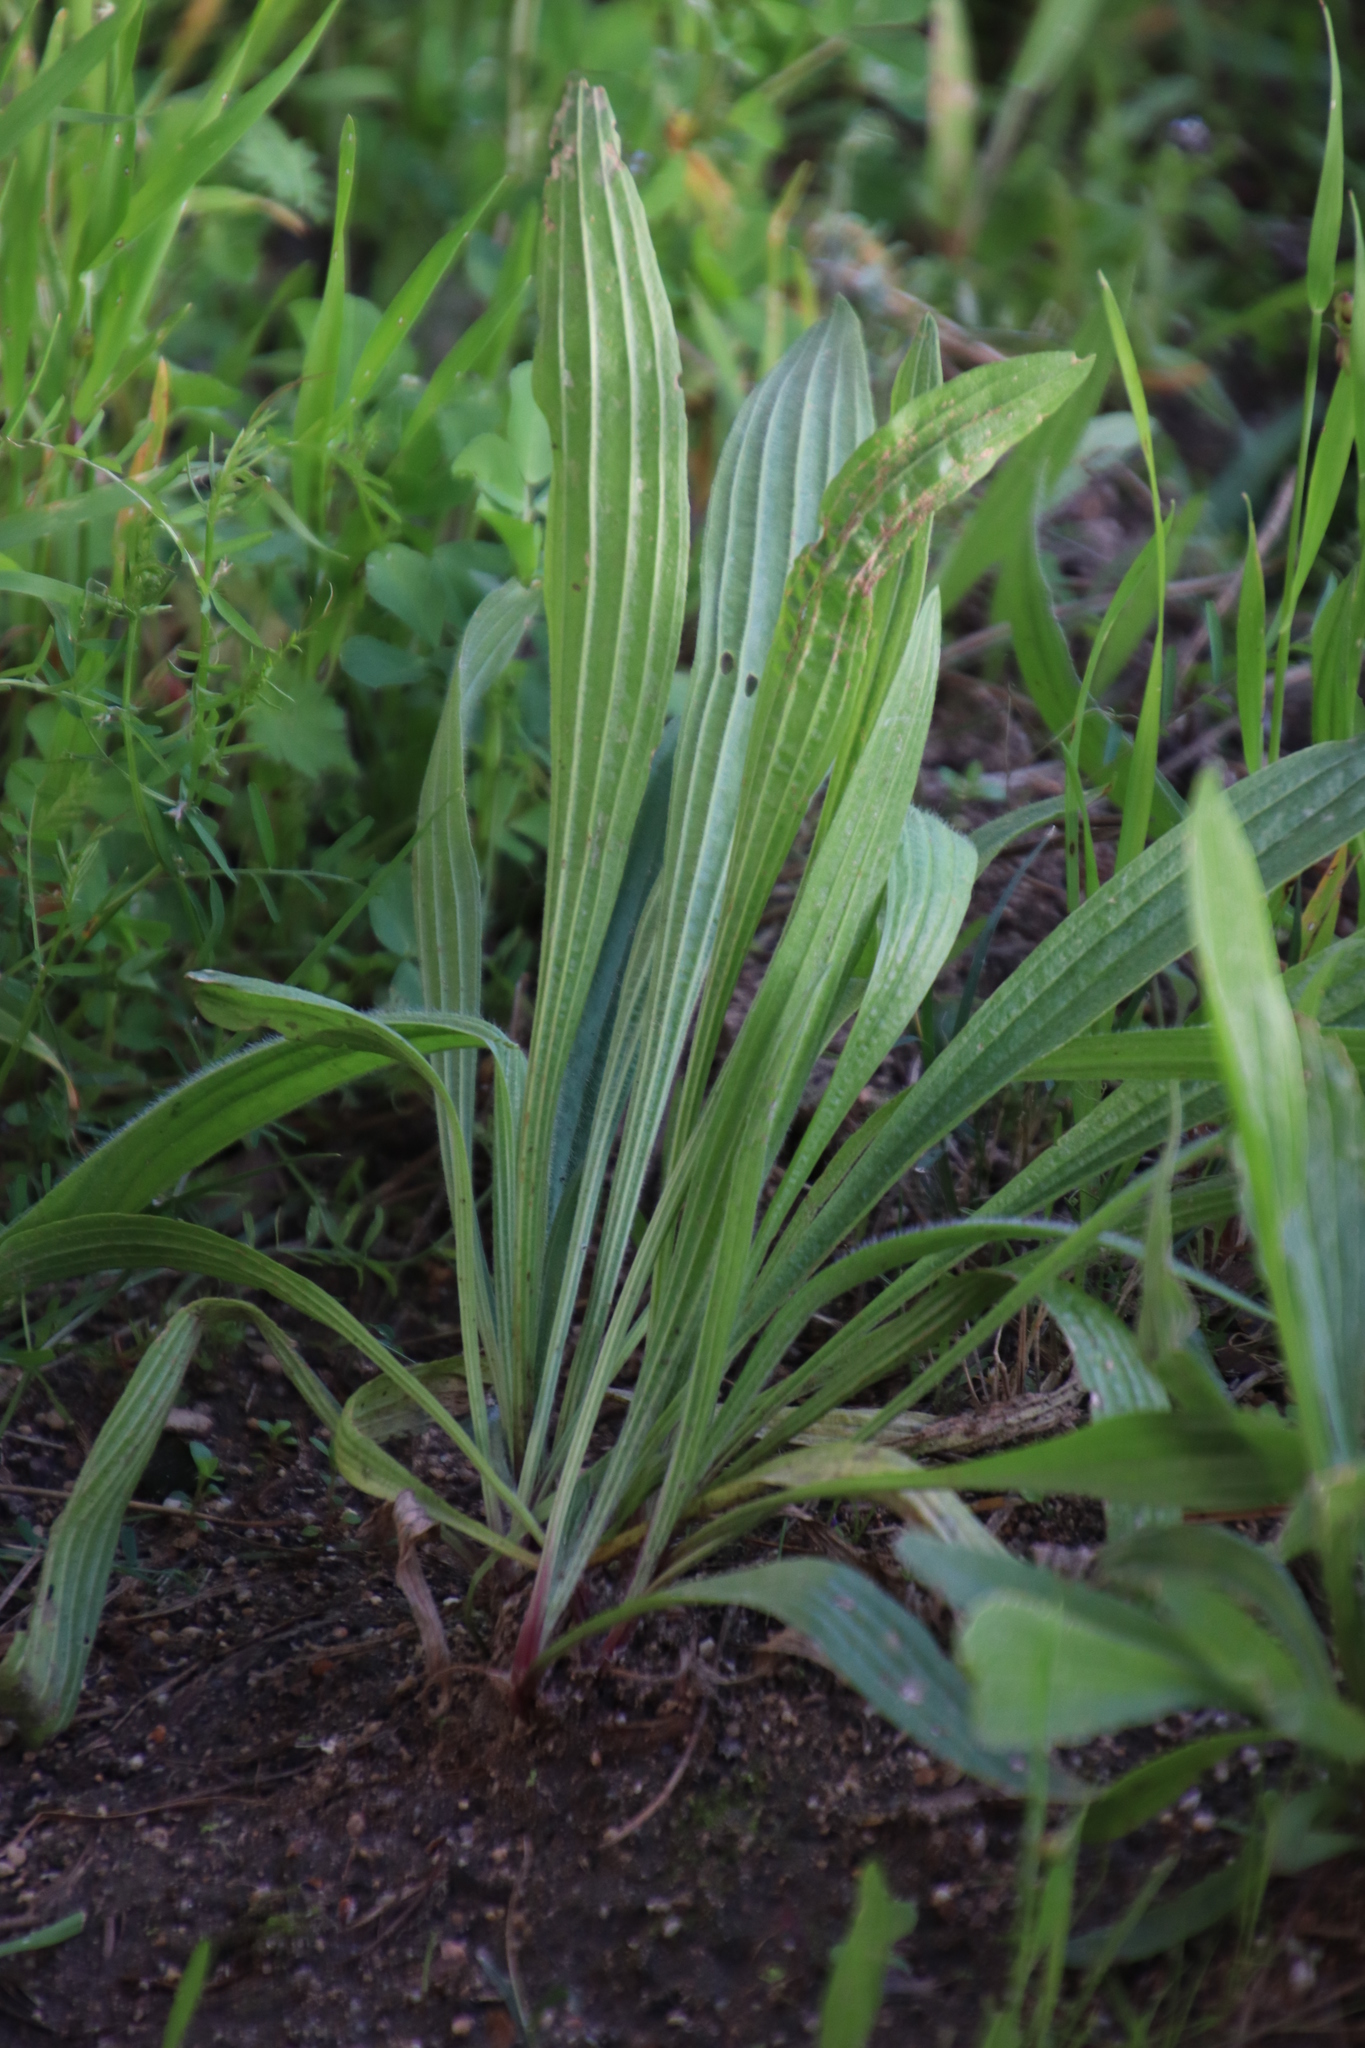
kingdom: Plantae
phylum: Tracheophyta
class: Magnoliopsida
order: Lamiales
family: Plantaginaceae
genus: Plantago
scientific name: Plantago lanceolata
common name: Ribwort plantain
